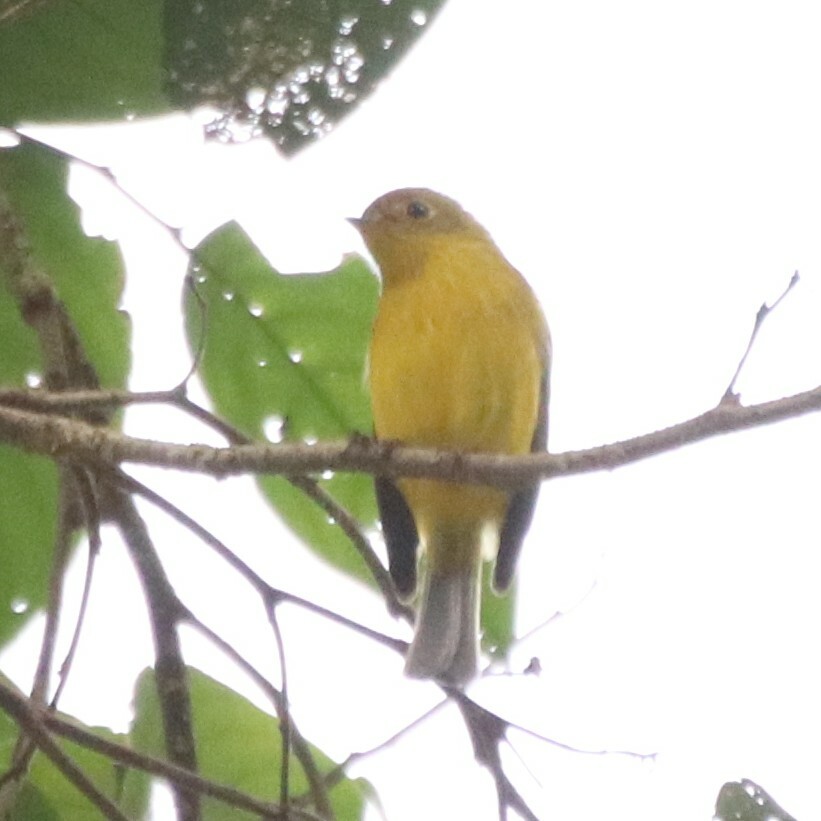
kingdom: Animalia
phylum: Chordata
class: Aves
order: Passeriformes
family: Stenostiridae
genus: Culicicapa
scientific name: Culicicapa helianthea
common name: Citrine canary-flycatcher
